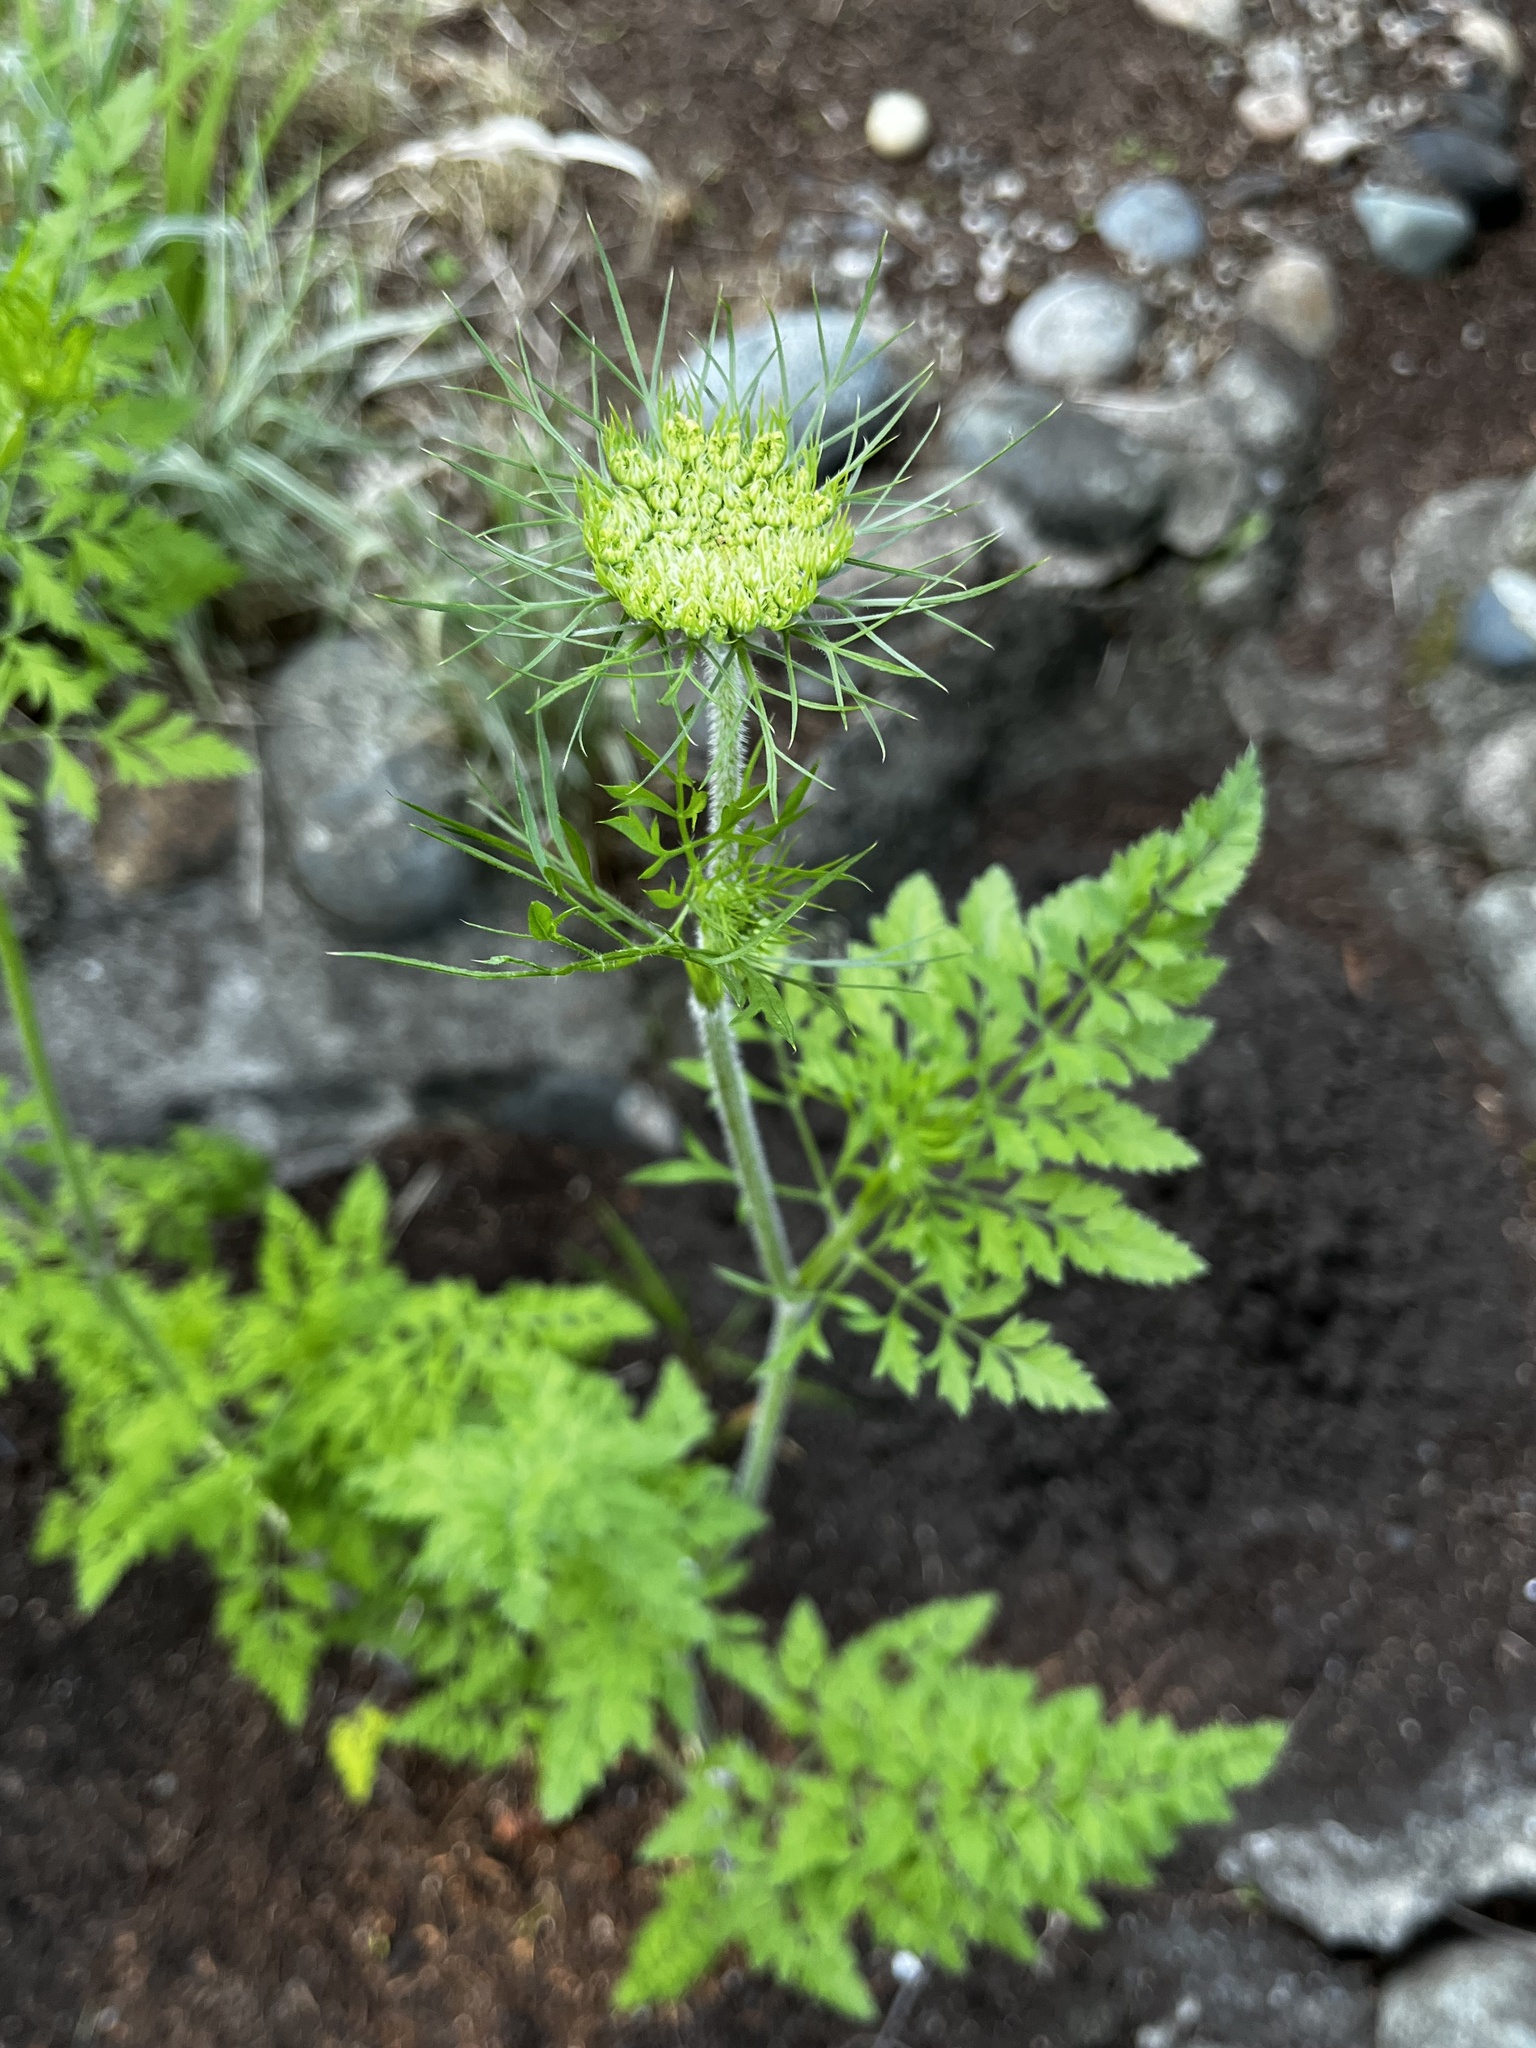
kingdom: Plantae
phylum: Tracheophyta
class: Magnoliopsida
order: Apiales
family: Apiaceae
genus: Daucus
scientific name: Daucus carota
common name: Wild carrot
